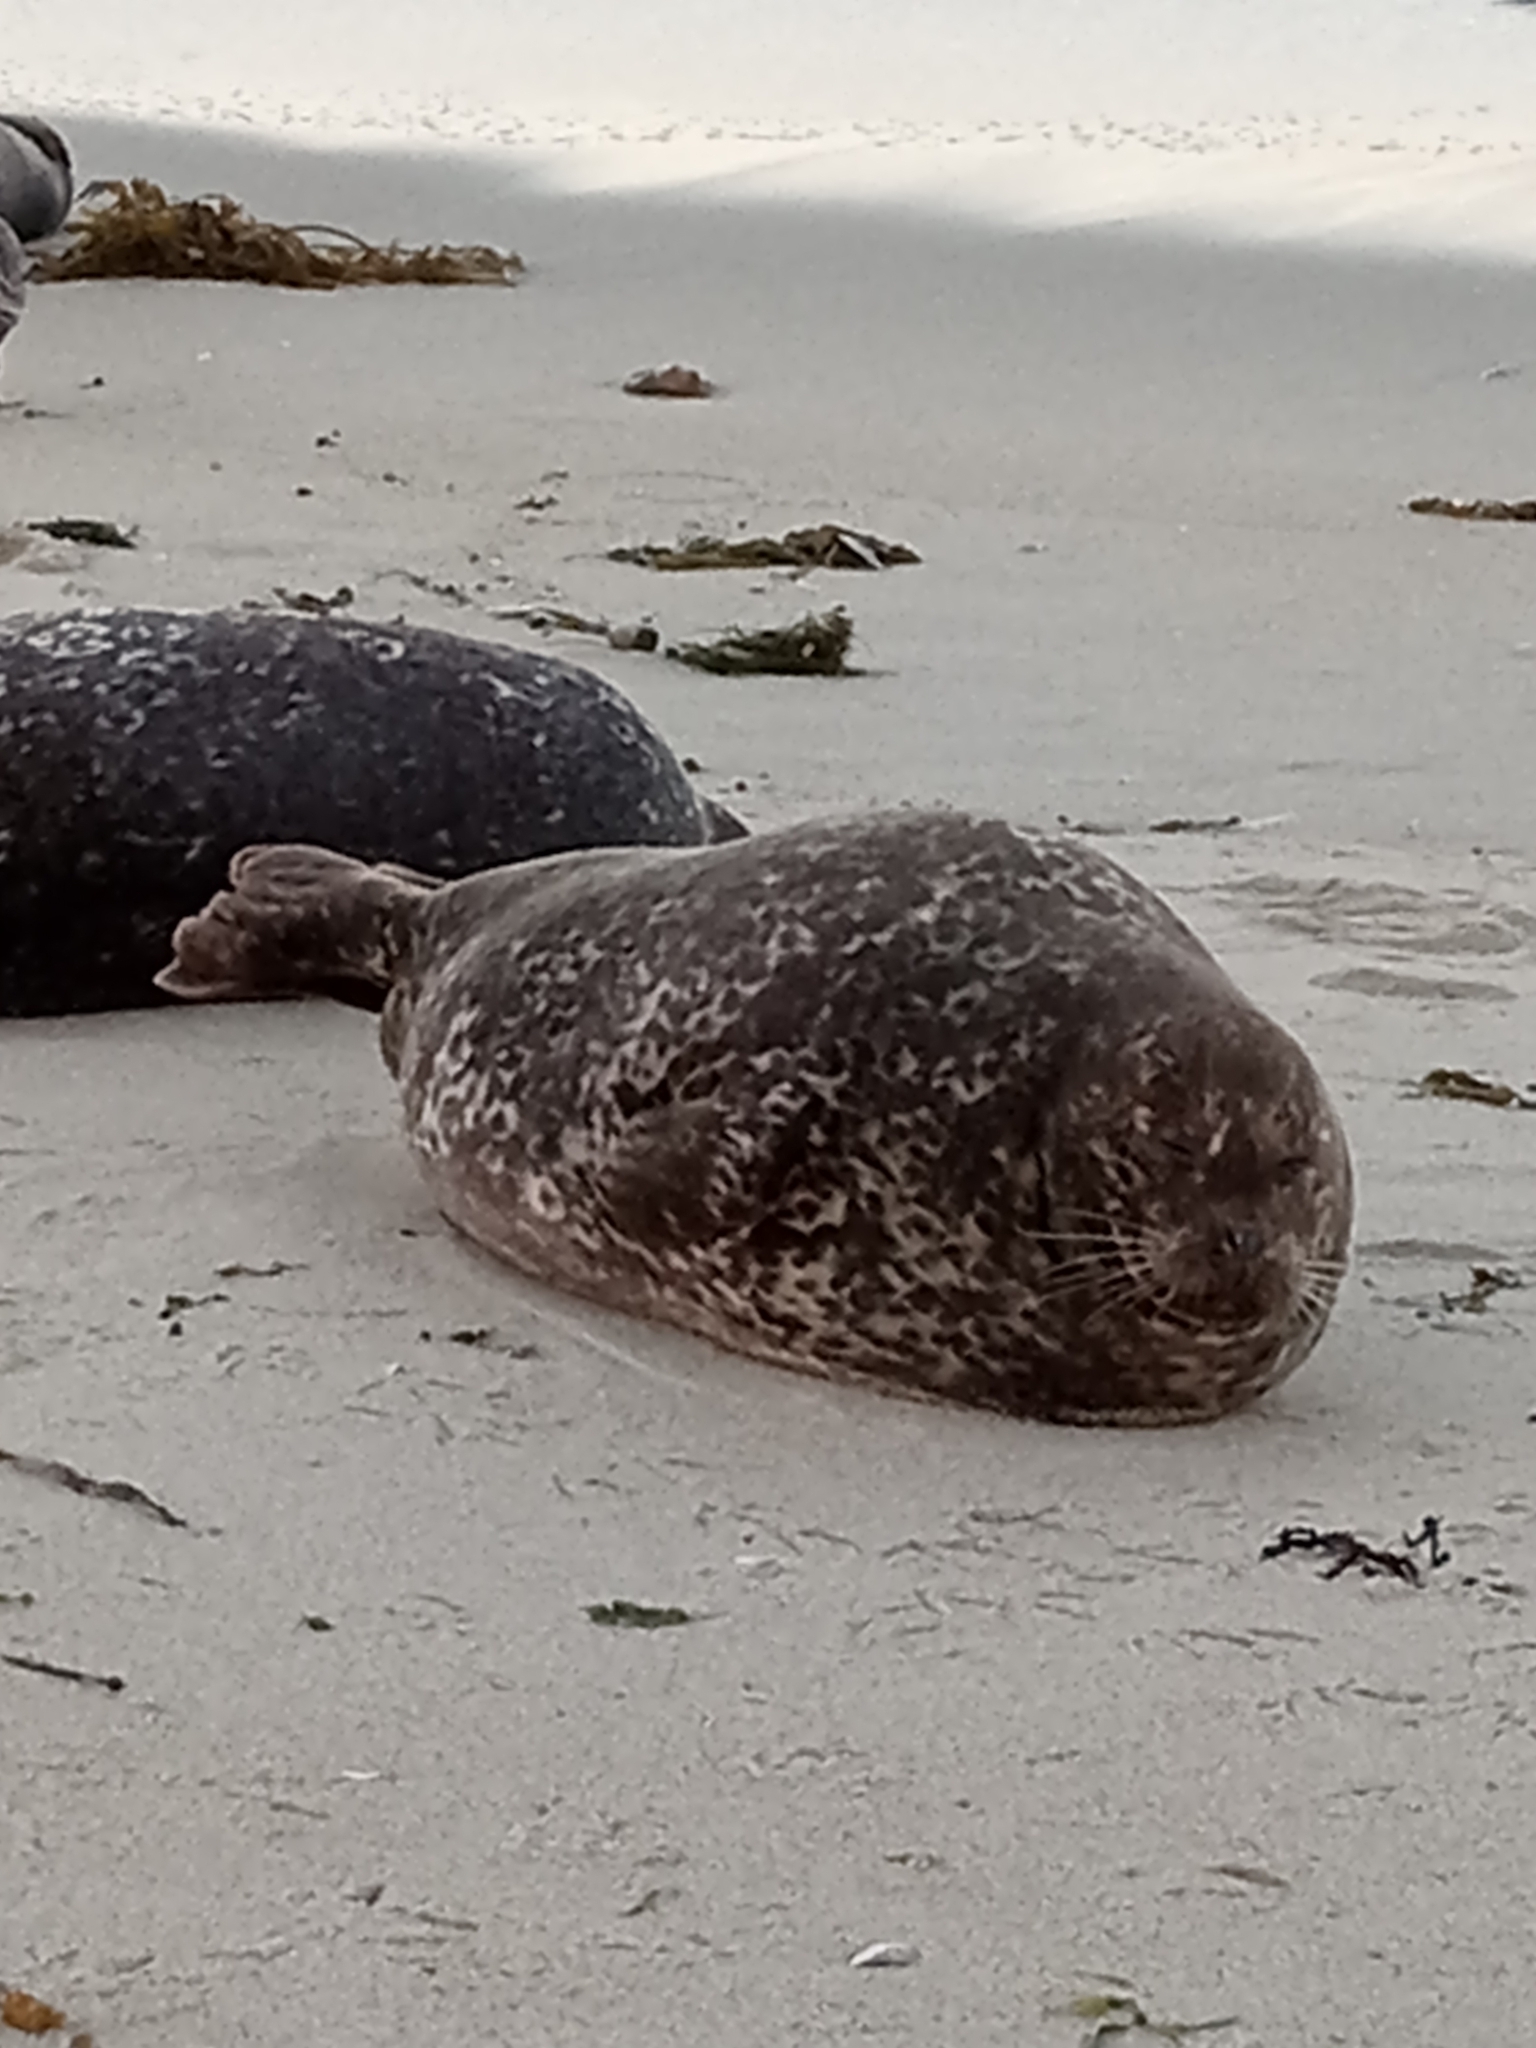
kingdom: Animalia
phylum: Chordata
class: Mammalia
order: Carnivora
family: Phocidae
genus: Phoca
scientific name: Phoca vitulina
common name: Harbor seal
